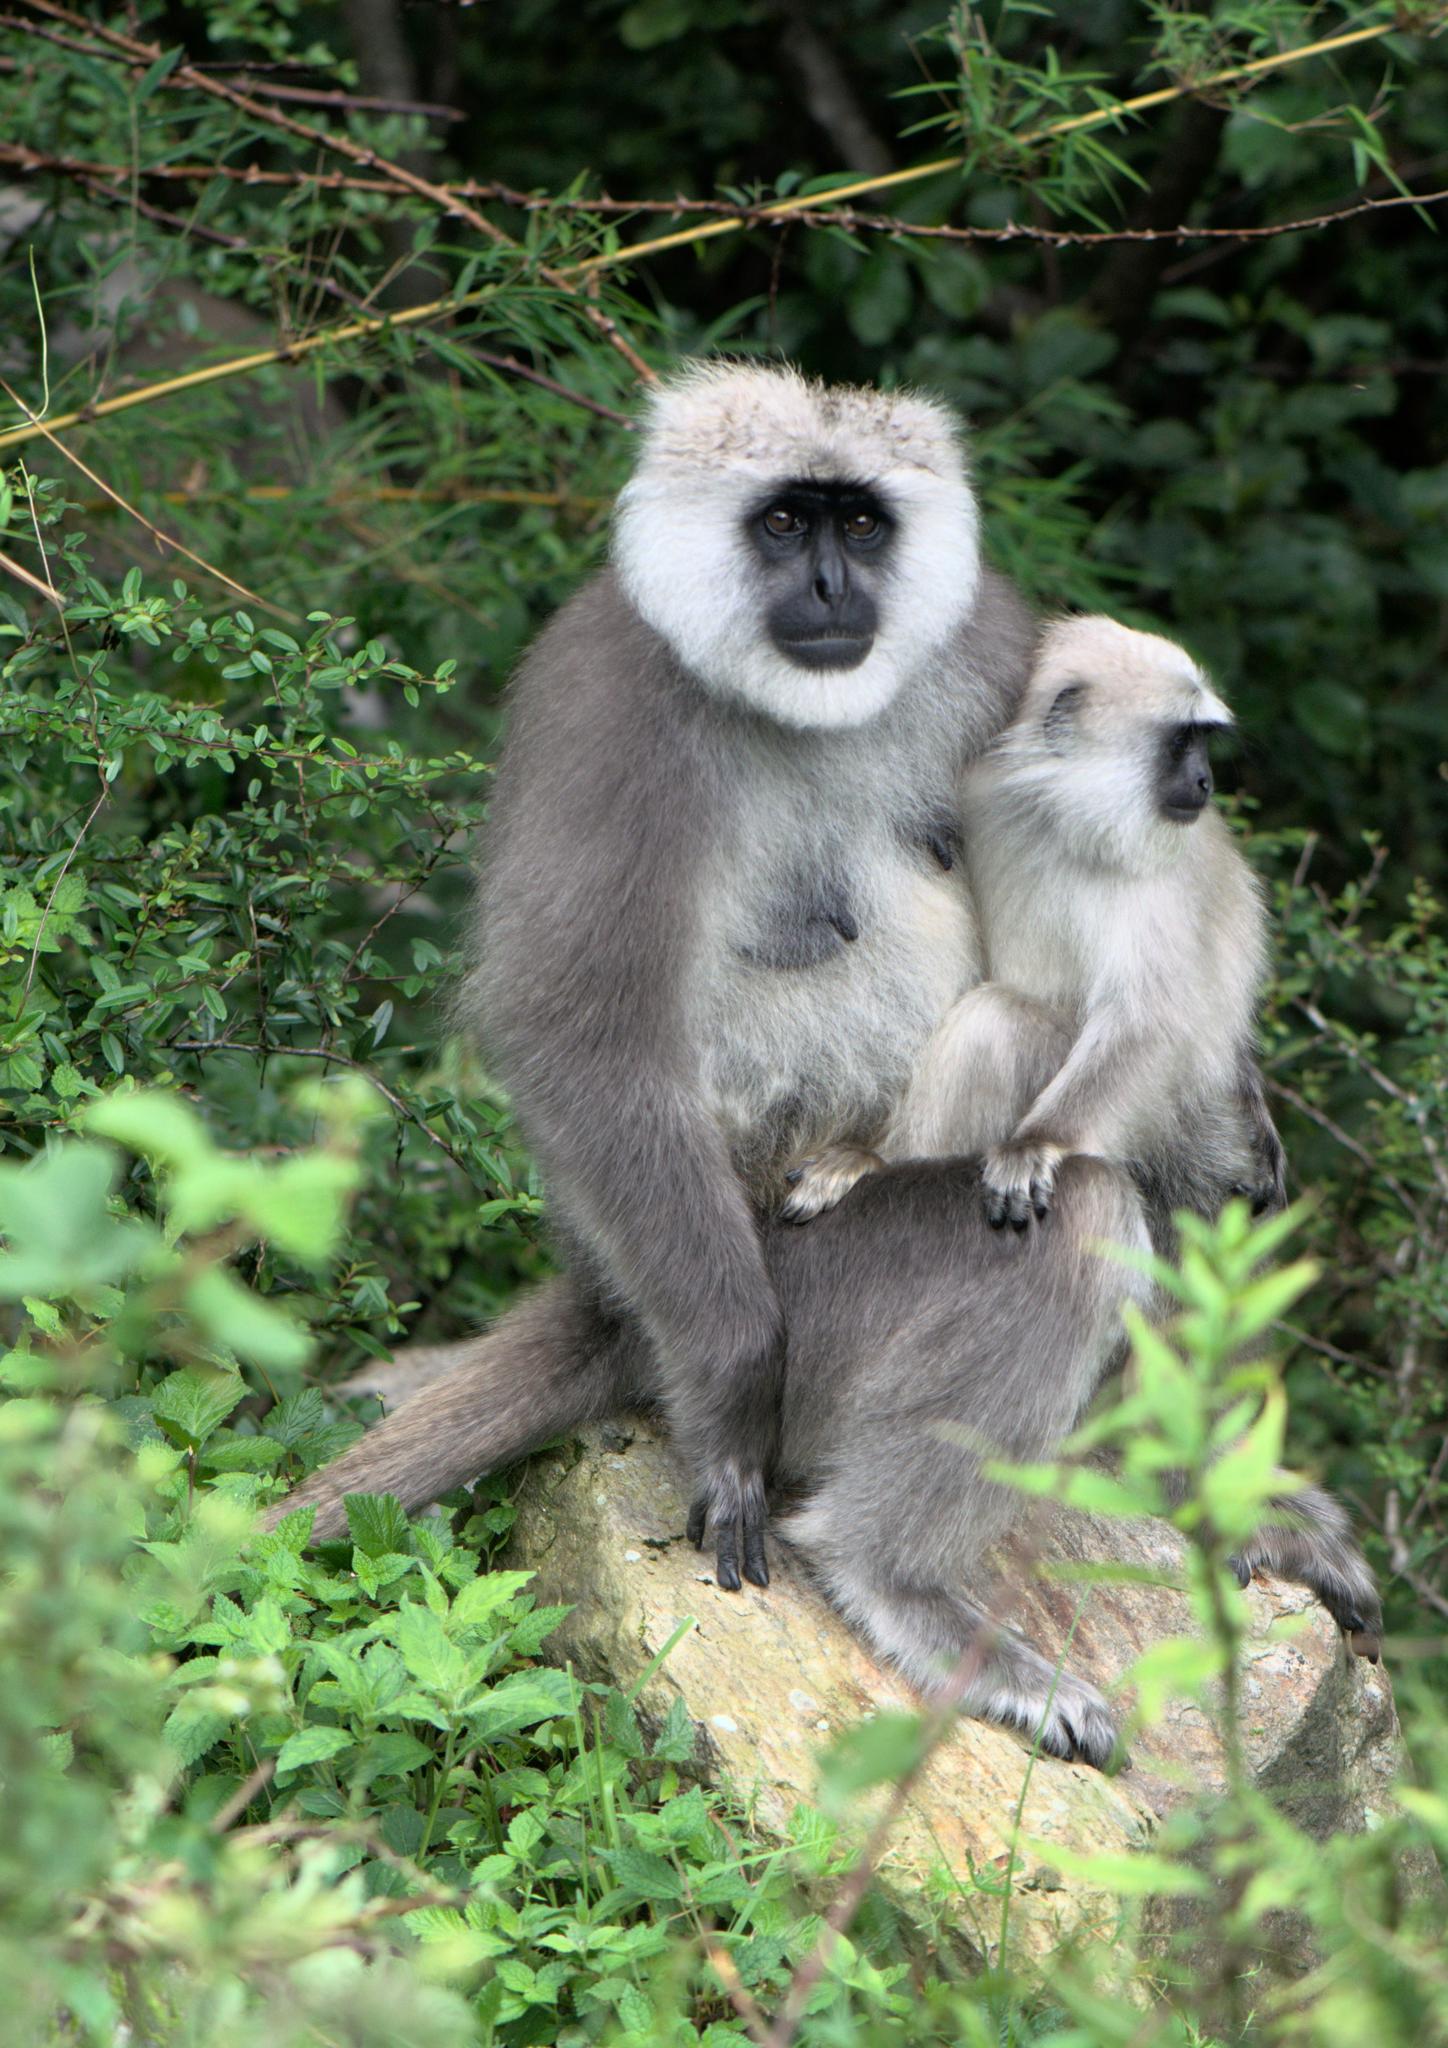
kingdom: Animalia
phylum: Chordata
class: Mammalia
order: Primates
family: Cercopithecidae
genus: Semnopithecus
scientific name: Semnopithecus schistaceus
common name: Nepal gray langur
